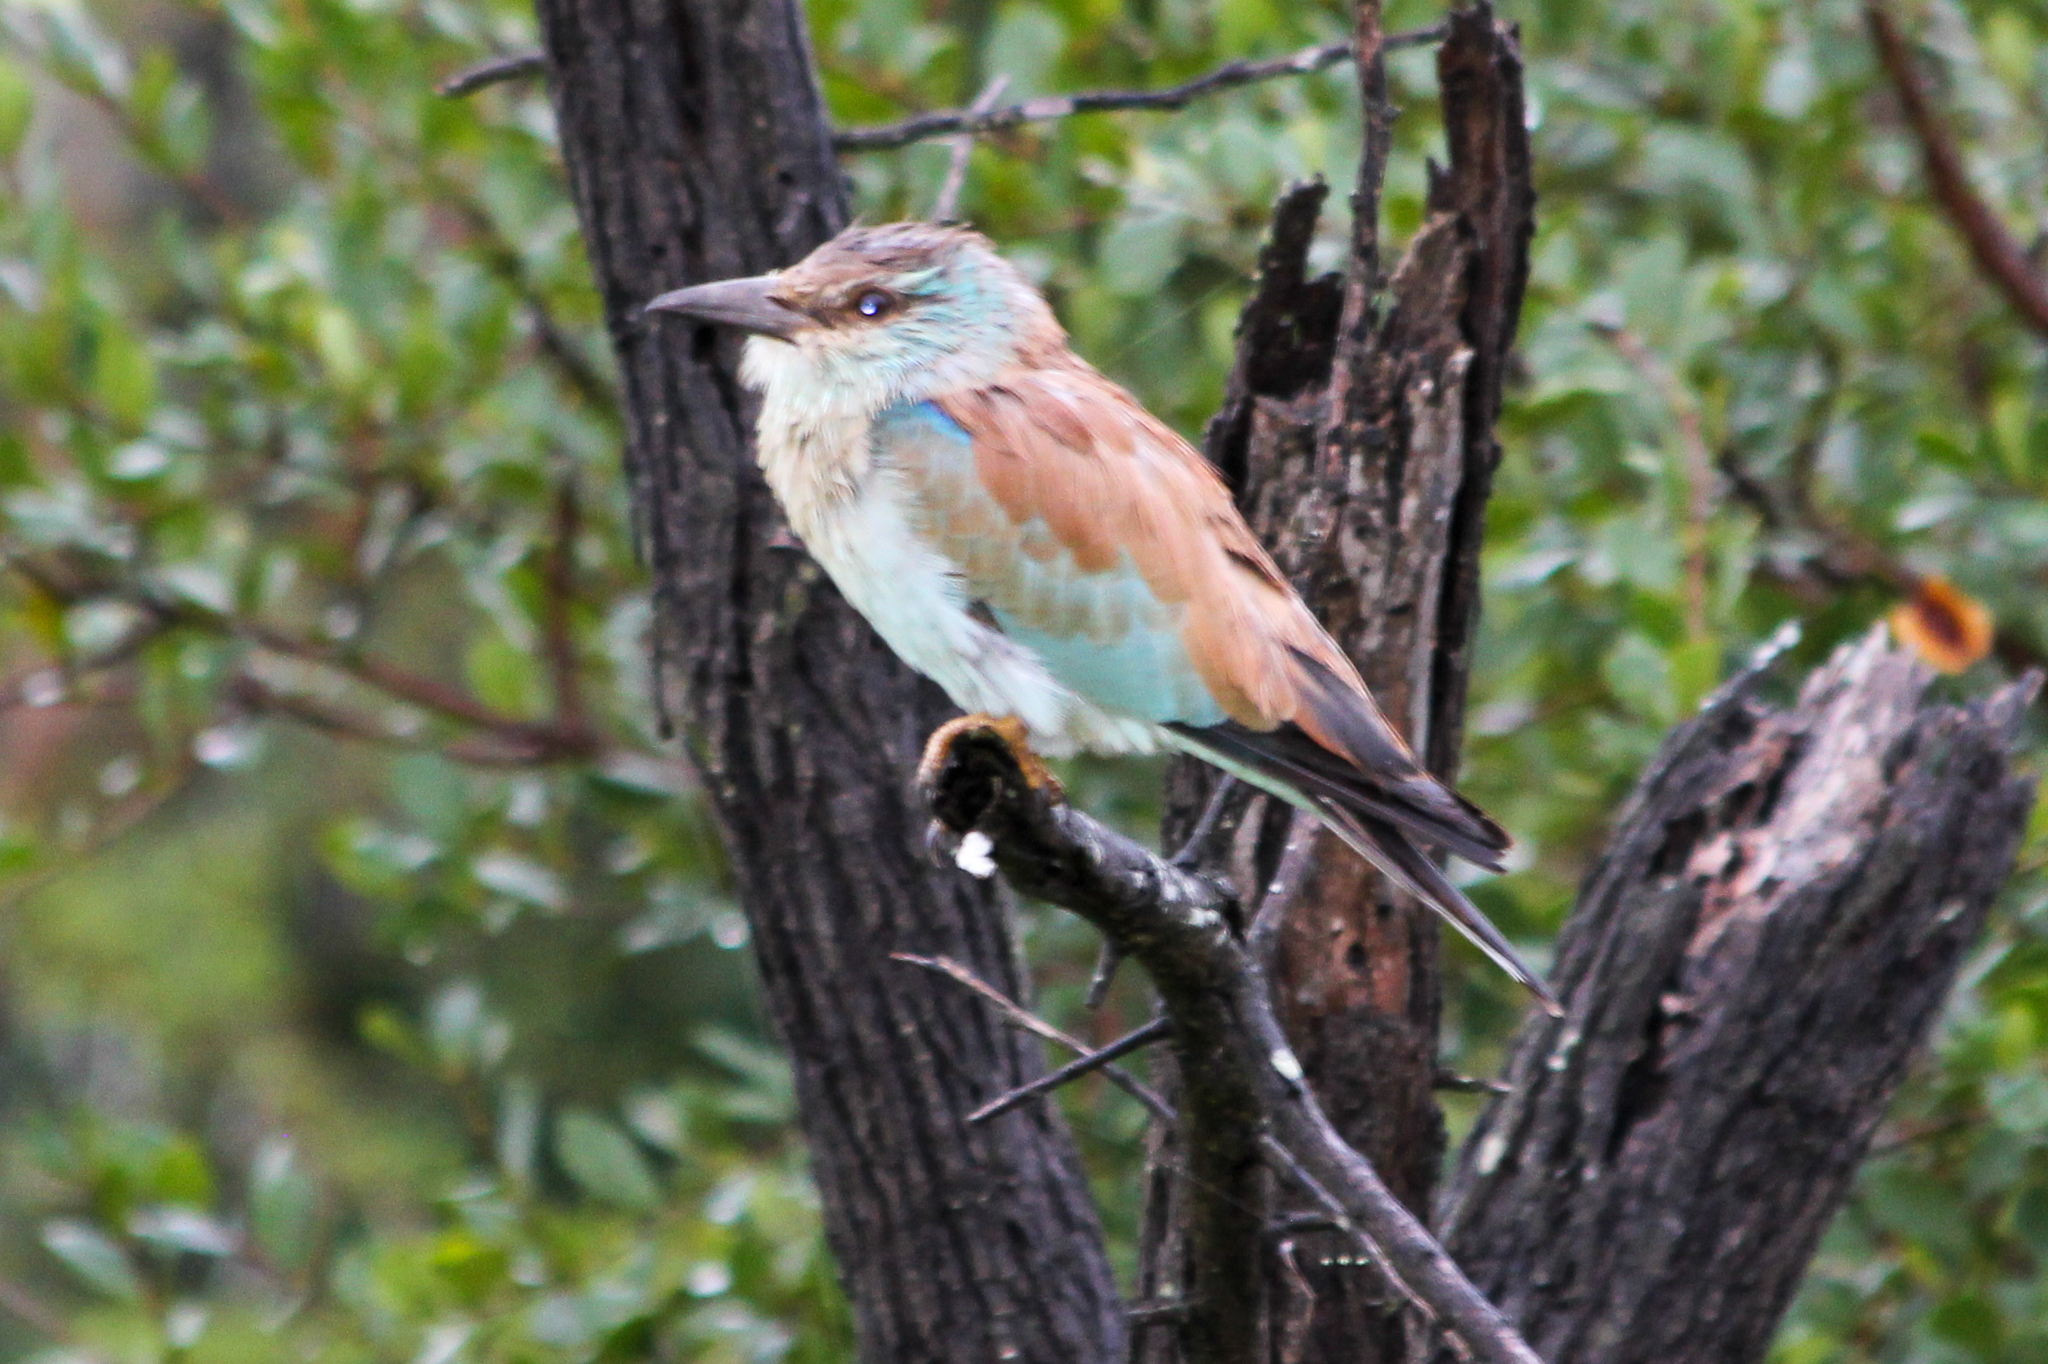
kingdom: Animalia
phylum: Chordata
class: Aves
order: Coraciiformes
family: Coraciidae
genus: Coracias
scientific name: Coracias garrulus
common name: European roller
